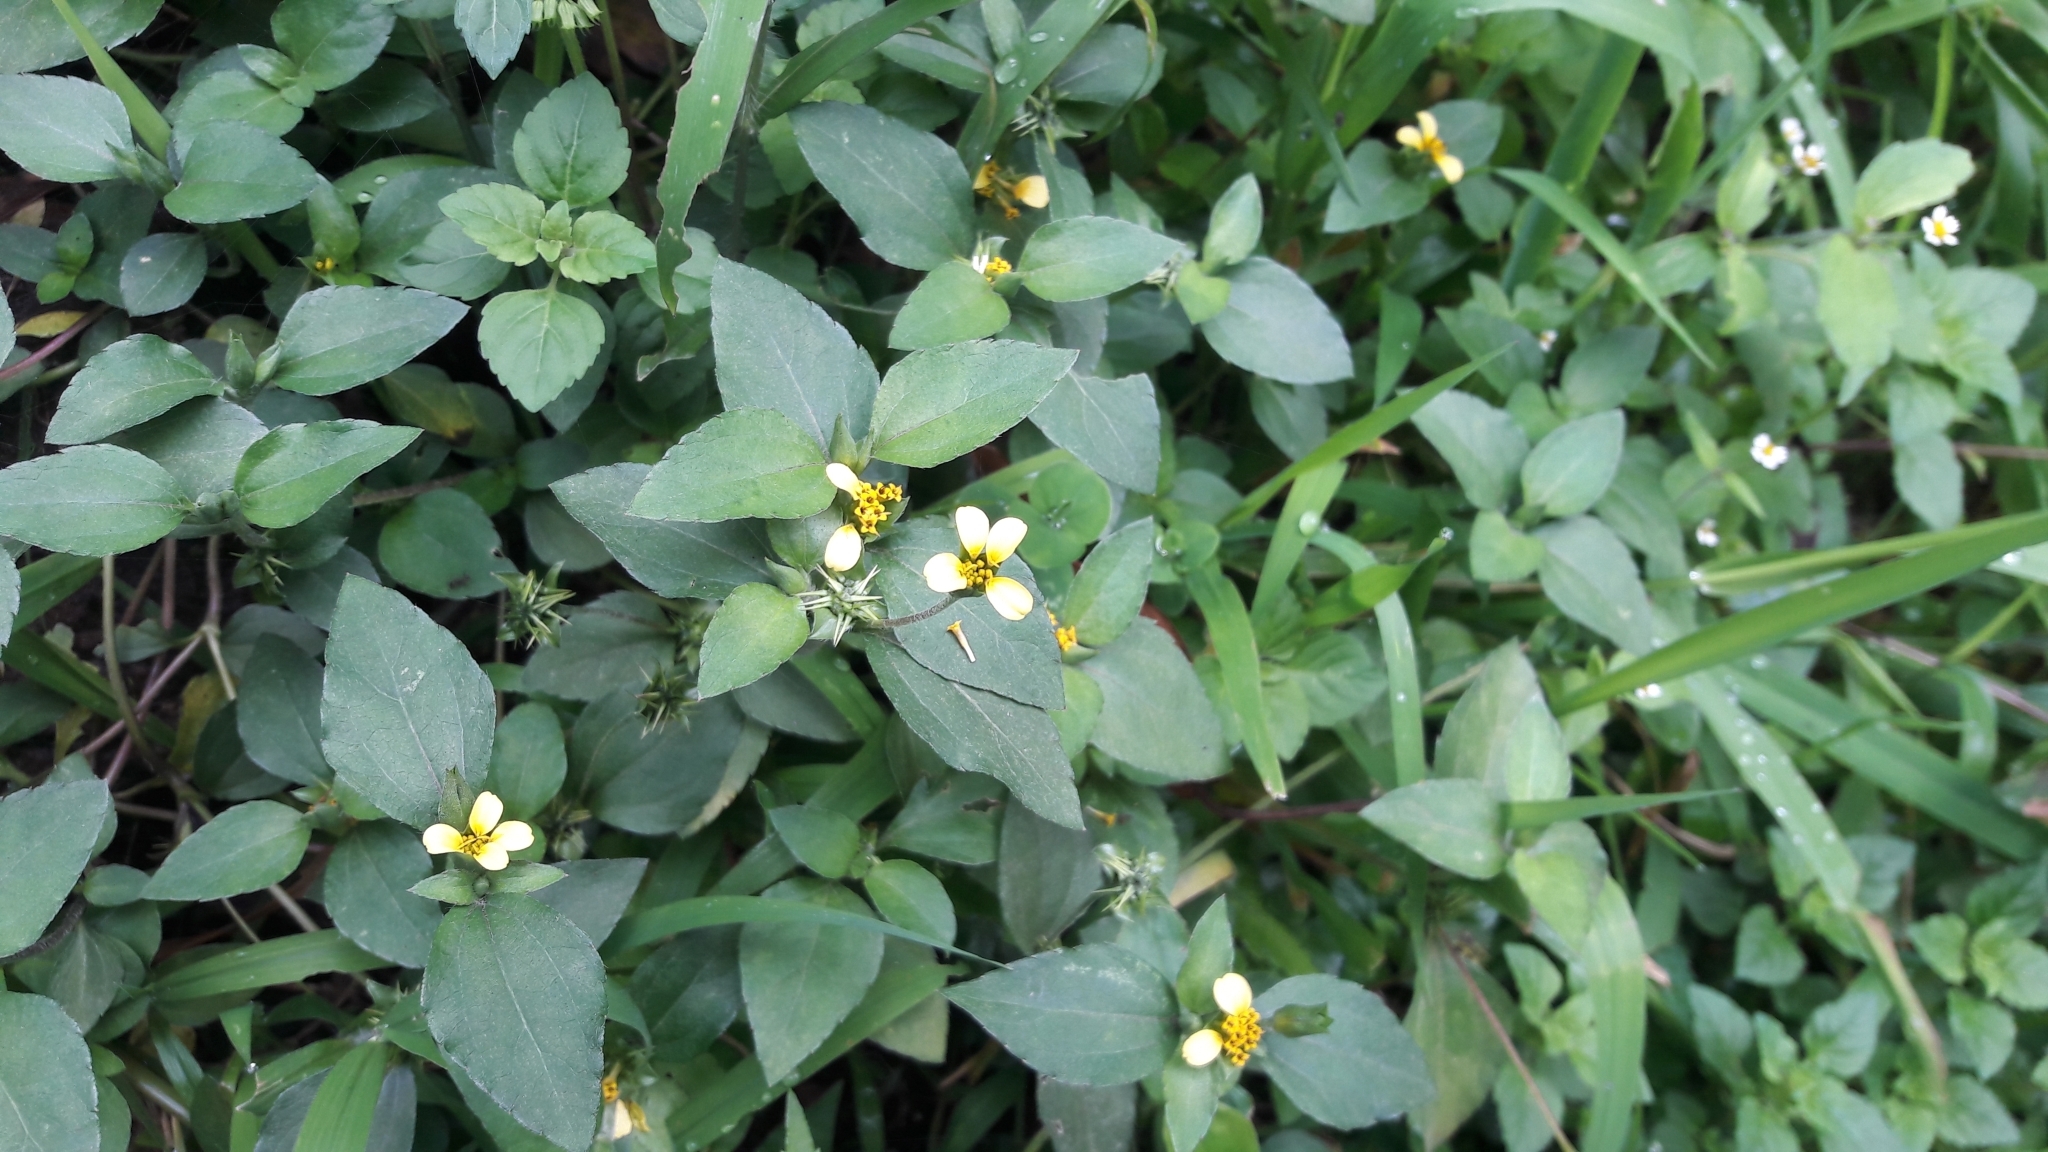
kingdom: Plantae
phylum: Tracheophyta
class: Magnoliopsida
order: Asterales
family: Asteraceae
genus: Calyptocarpus
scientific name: Calyptocarpus vialis
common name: Straggler daisy
